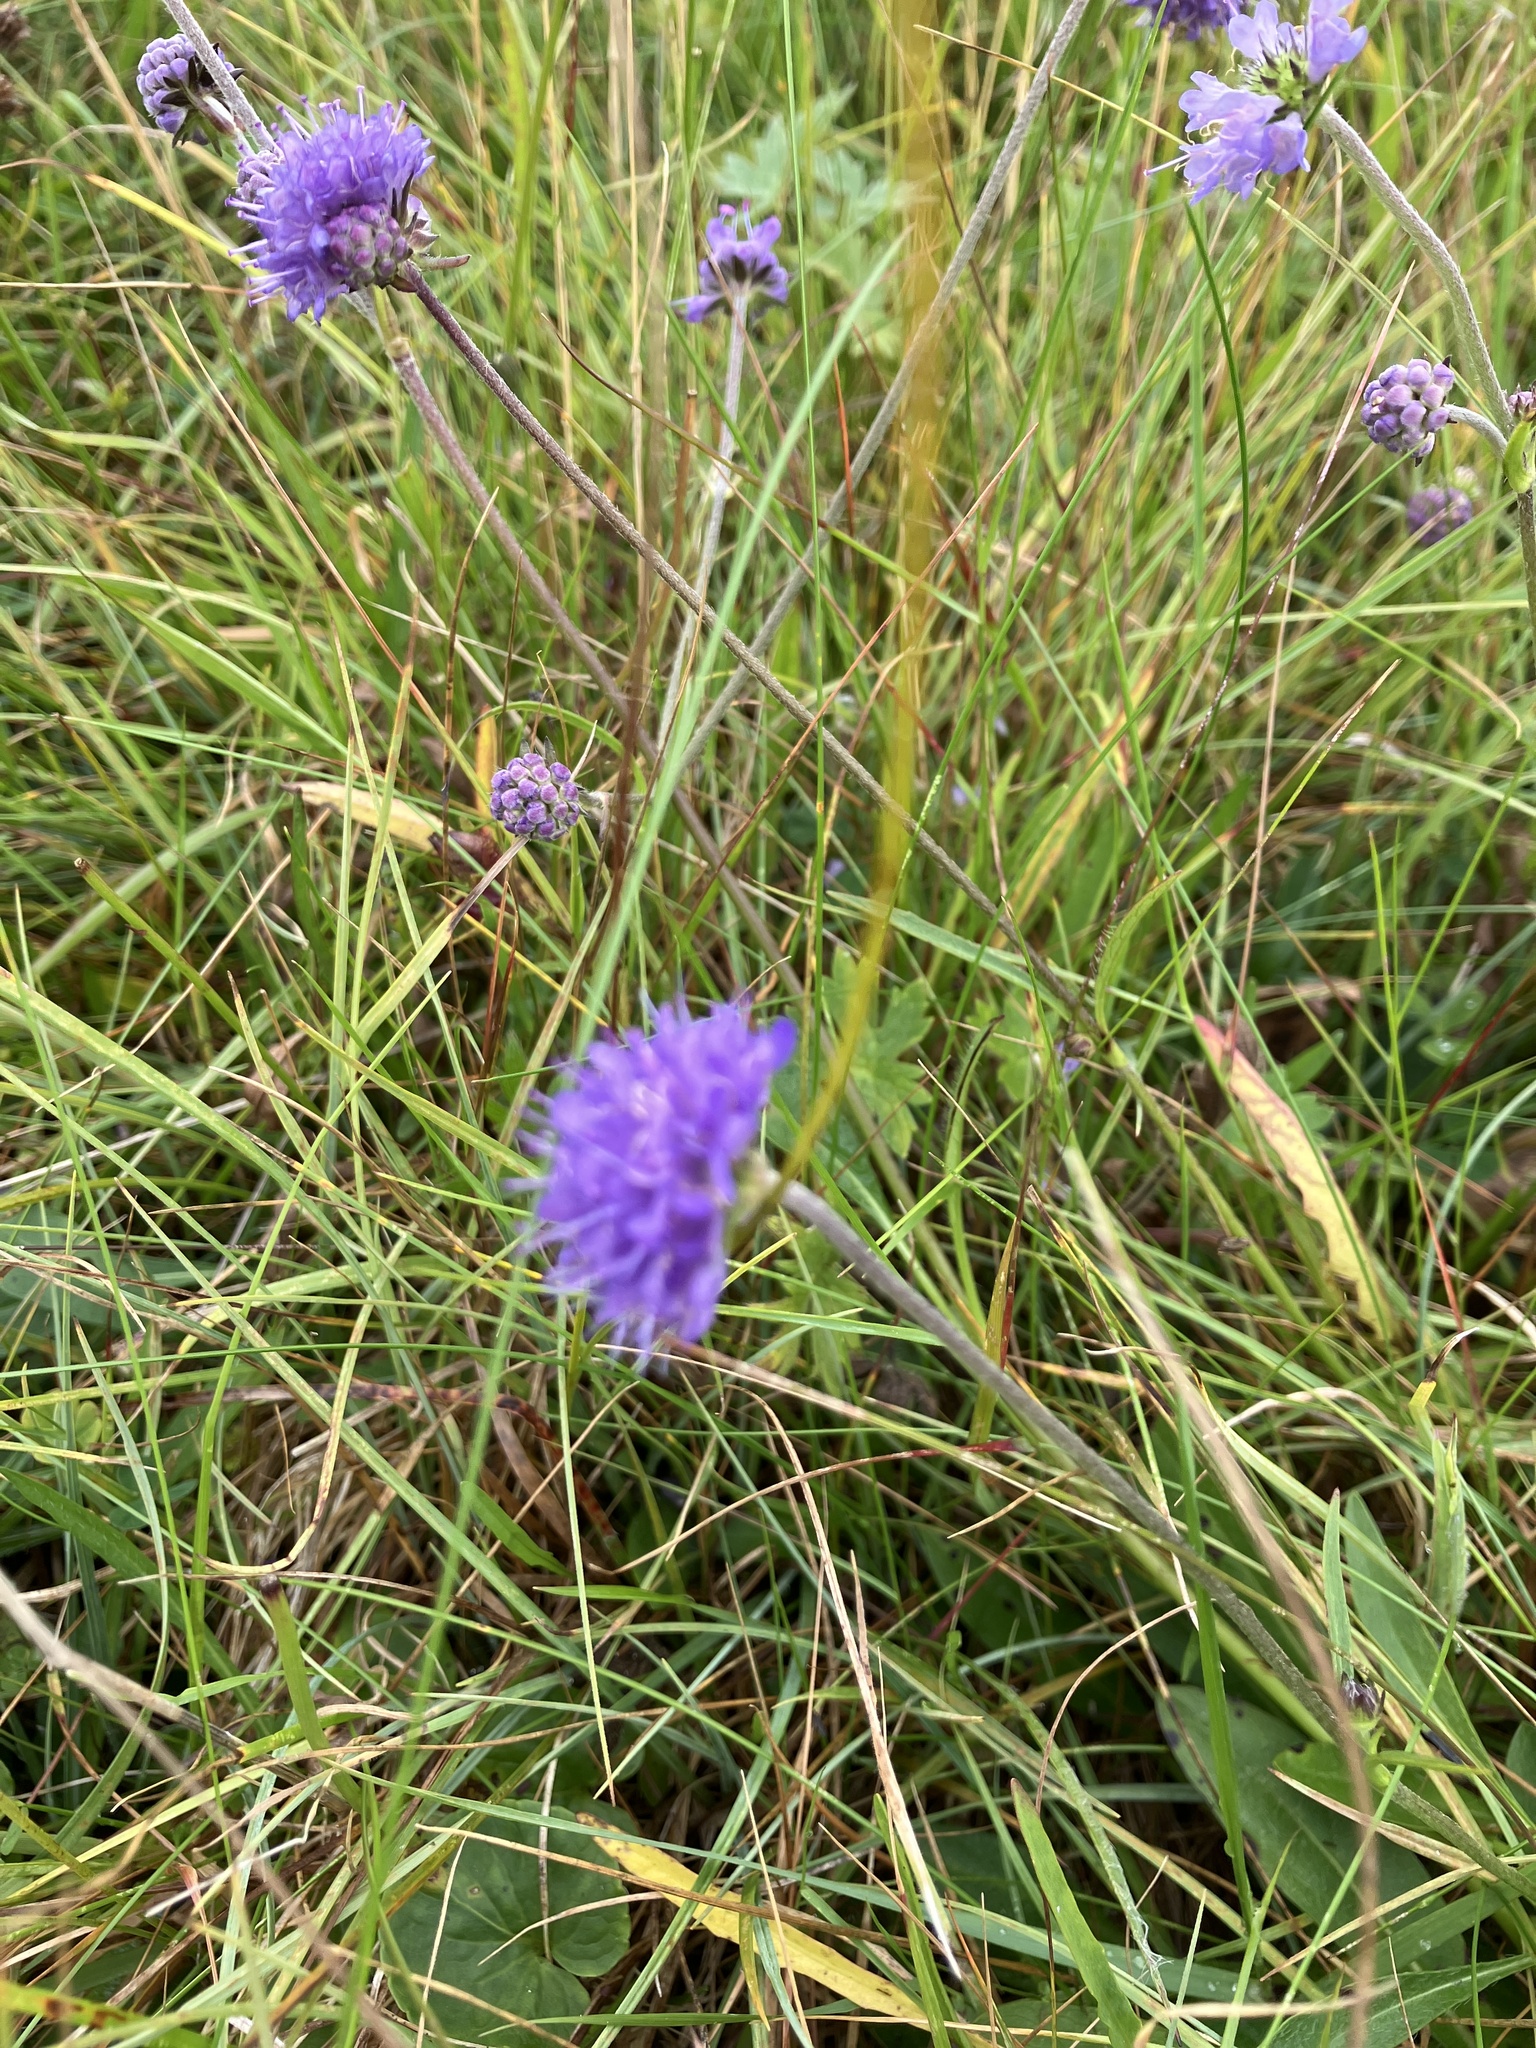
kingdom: Plantae
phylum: Tracheophyta
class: Magnoliopsida
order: Dipsacales
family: Caprifoliaceae
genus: Succisa
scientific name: Succisa pratensis
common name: Devil's-bit
